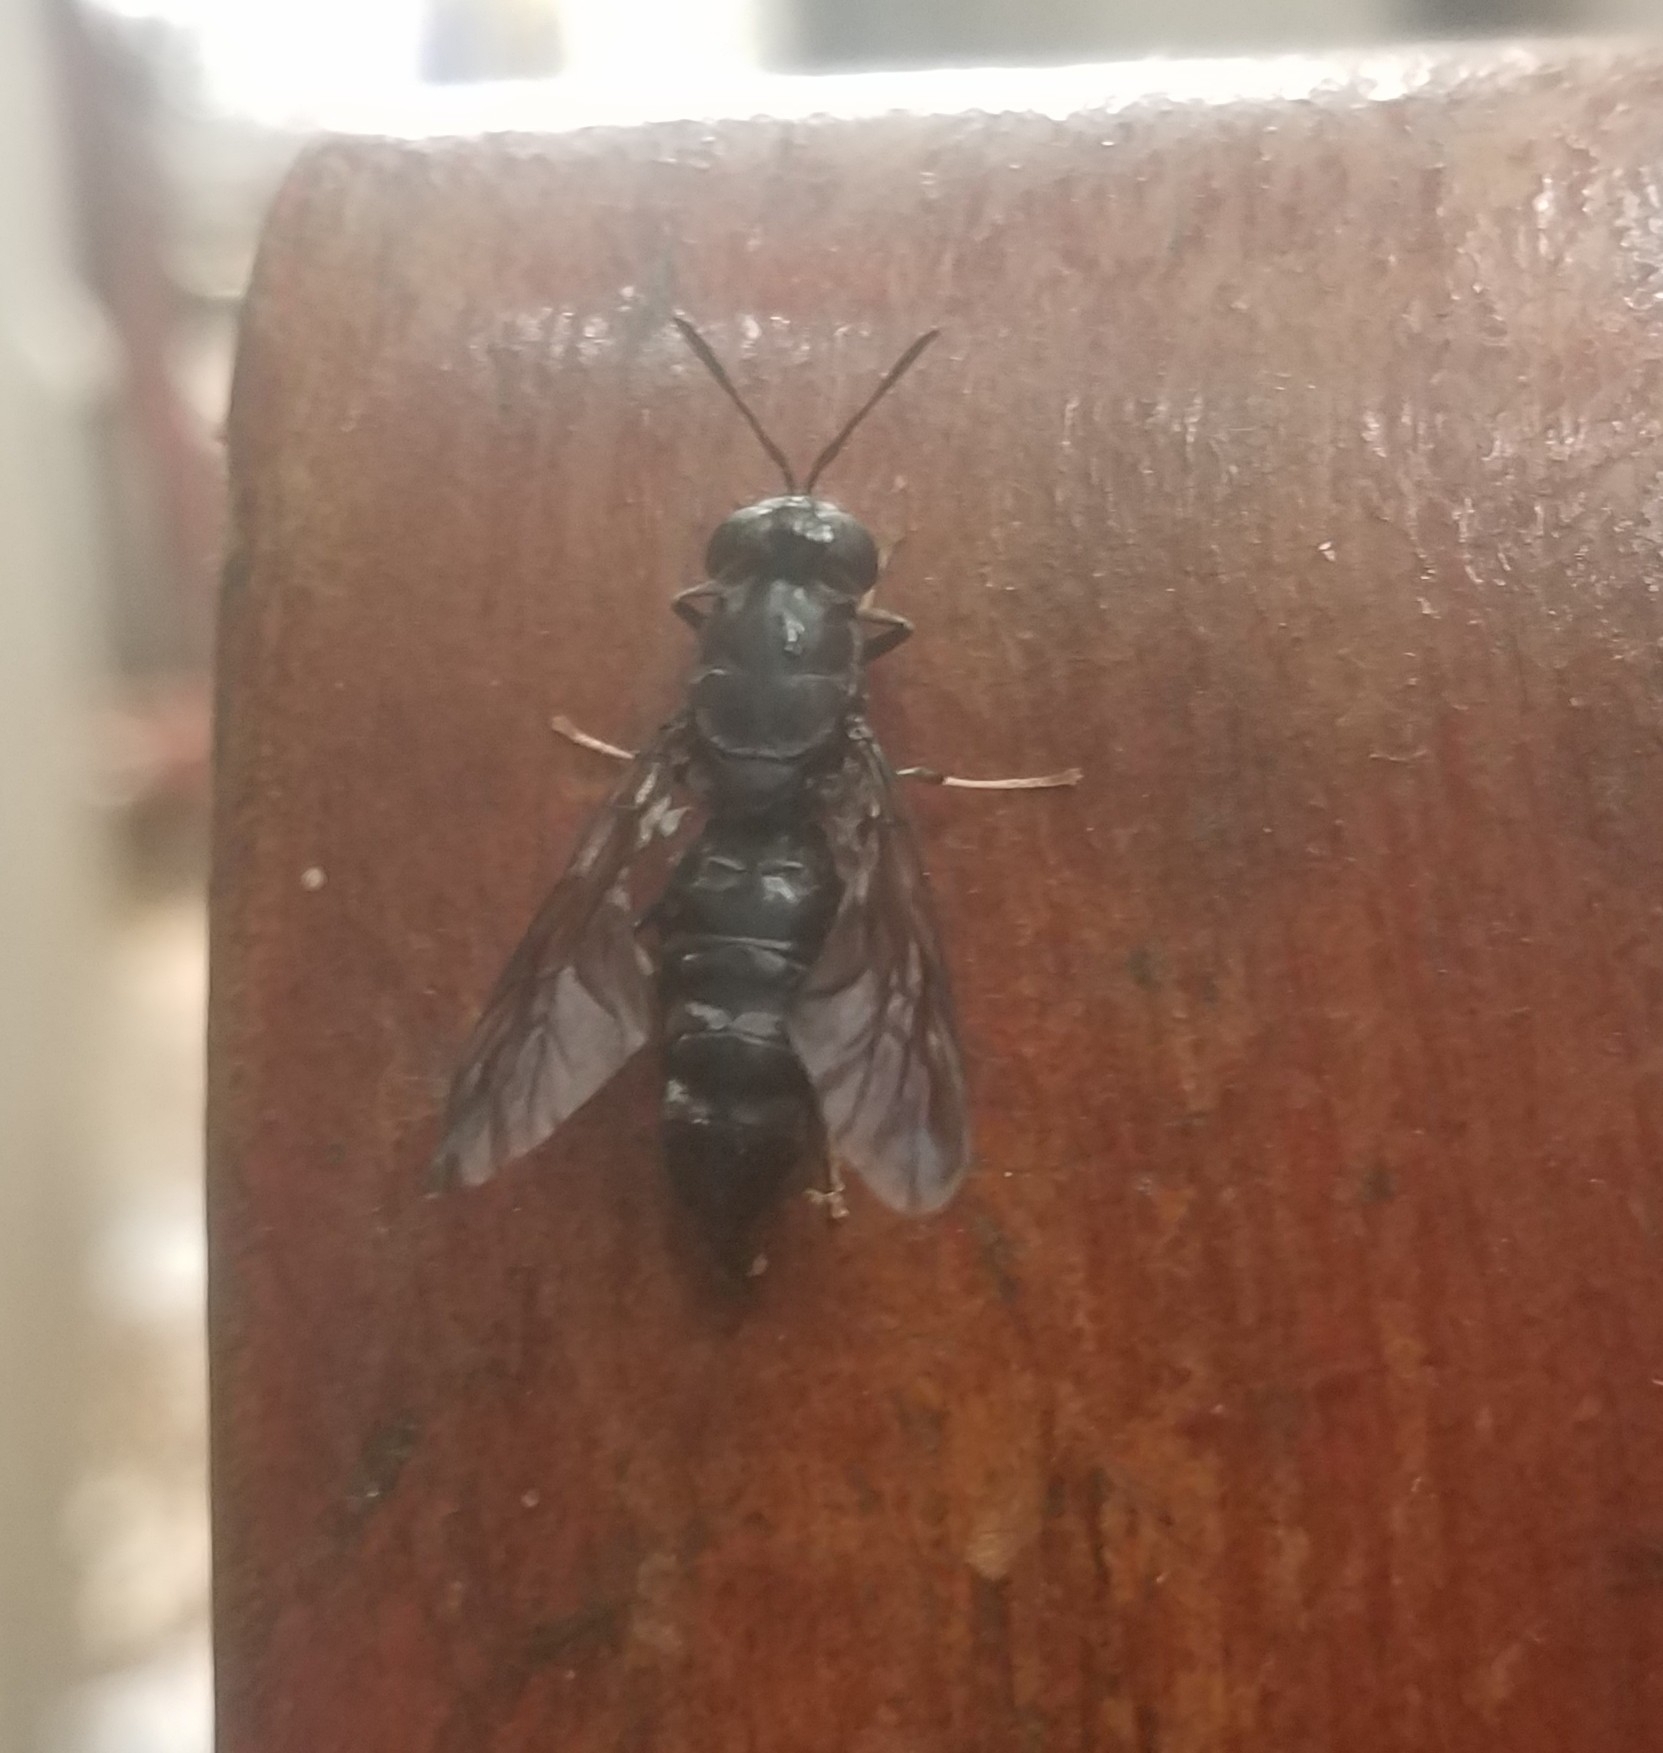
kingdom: Animalia
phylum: Arthropoda
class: Insecta
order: Diptera
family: Stratiomyidae
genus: Hermetia
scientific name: Hermetia illucens
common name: Black soldier fly
